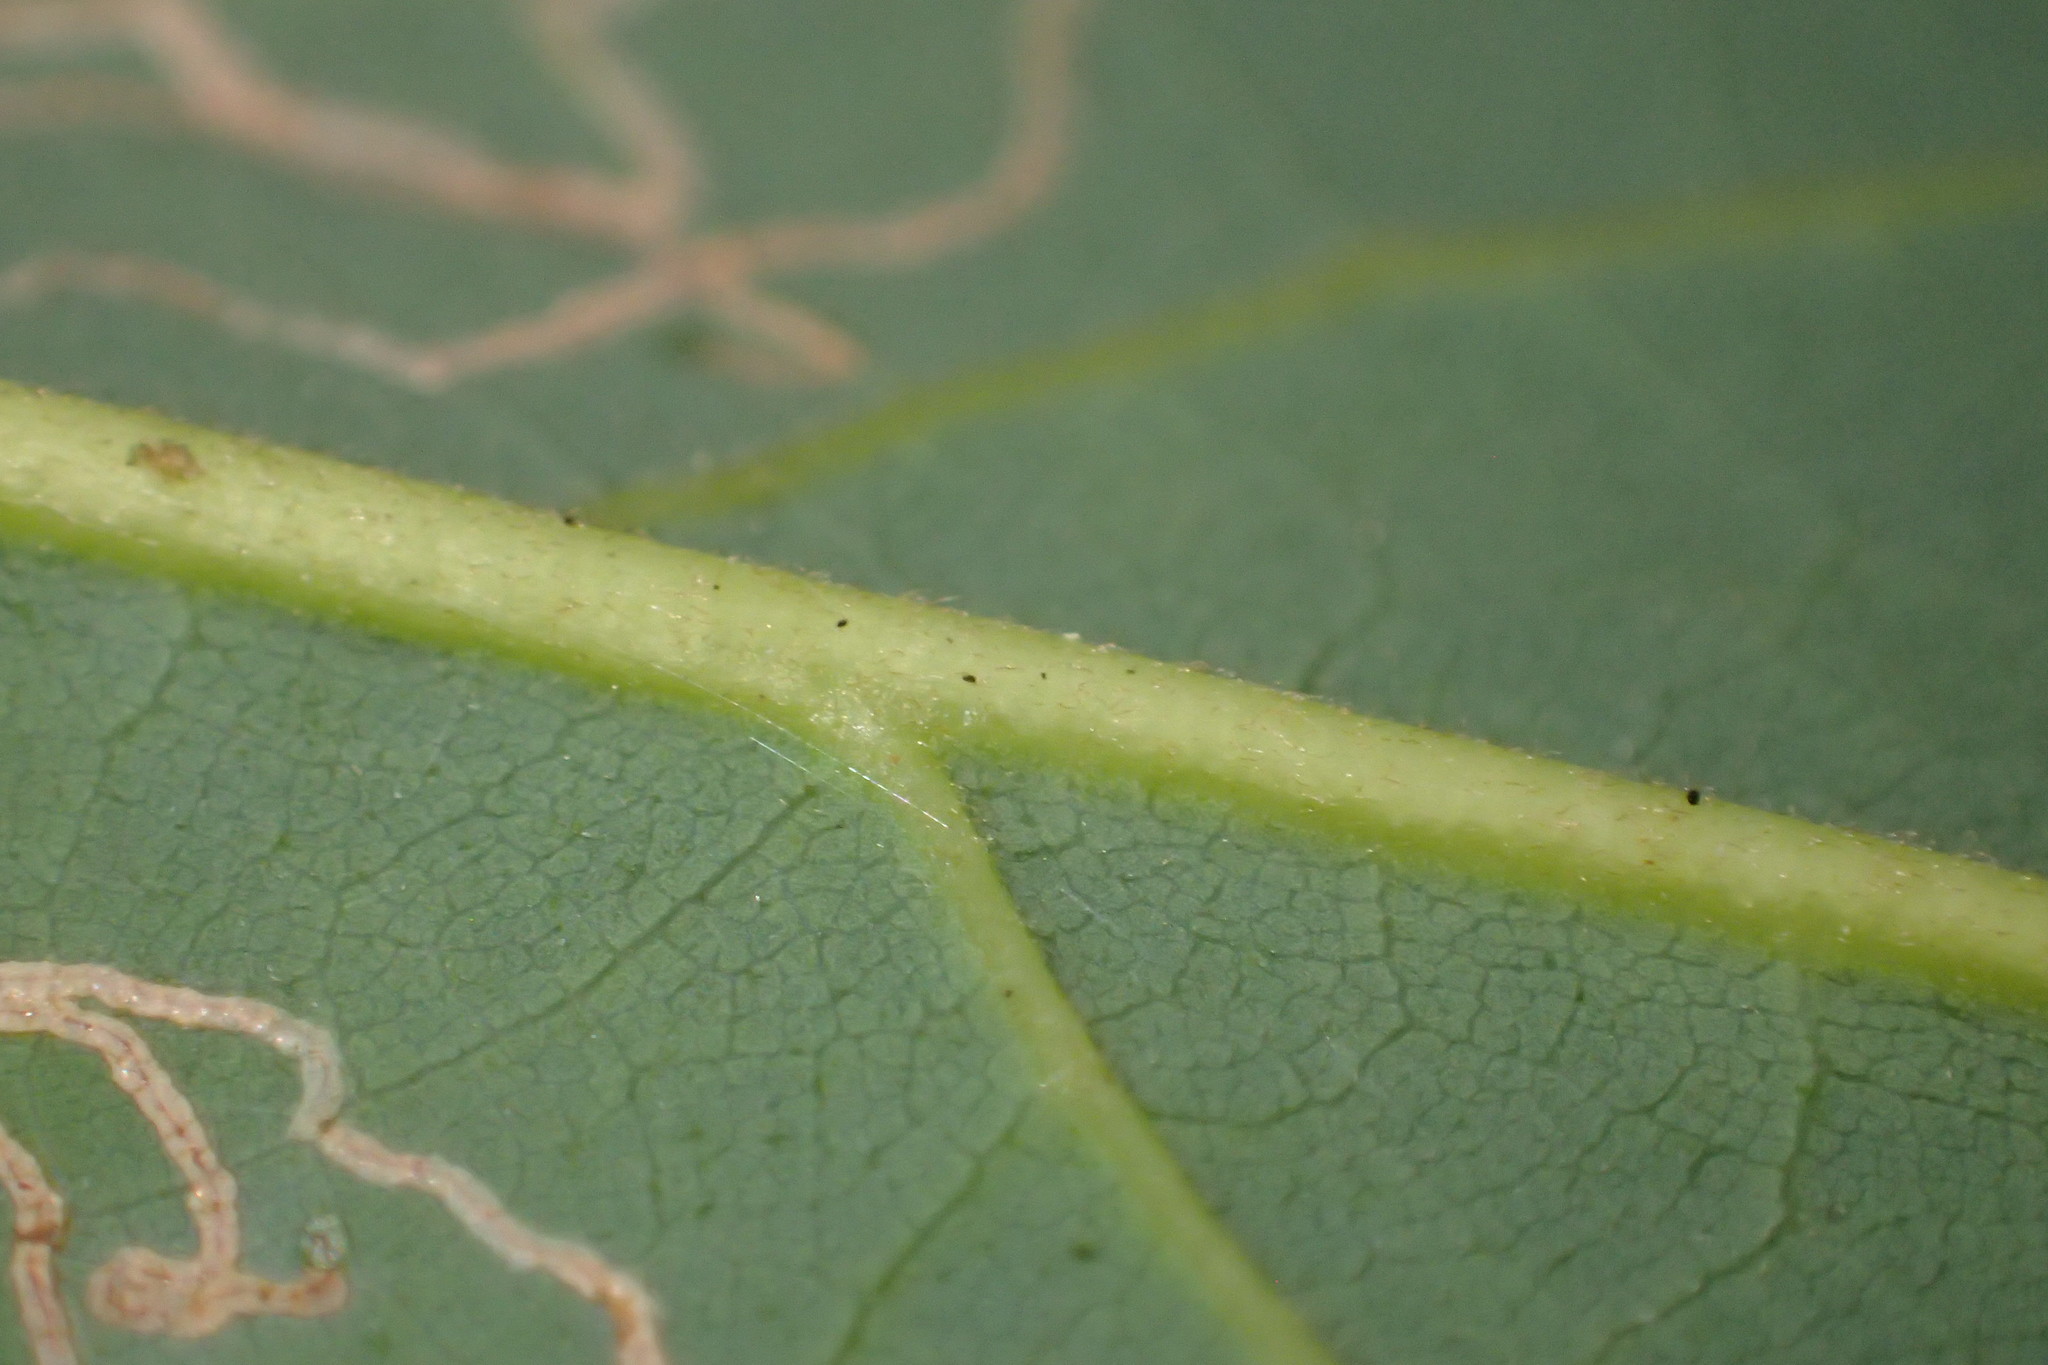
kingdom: Plantae
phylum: Tracheophyta
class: Magnoliopsida
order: Laurales
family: Lauraceae
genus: Persea
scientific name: Persea borbonia
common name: Redbay
